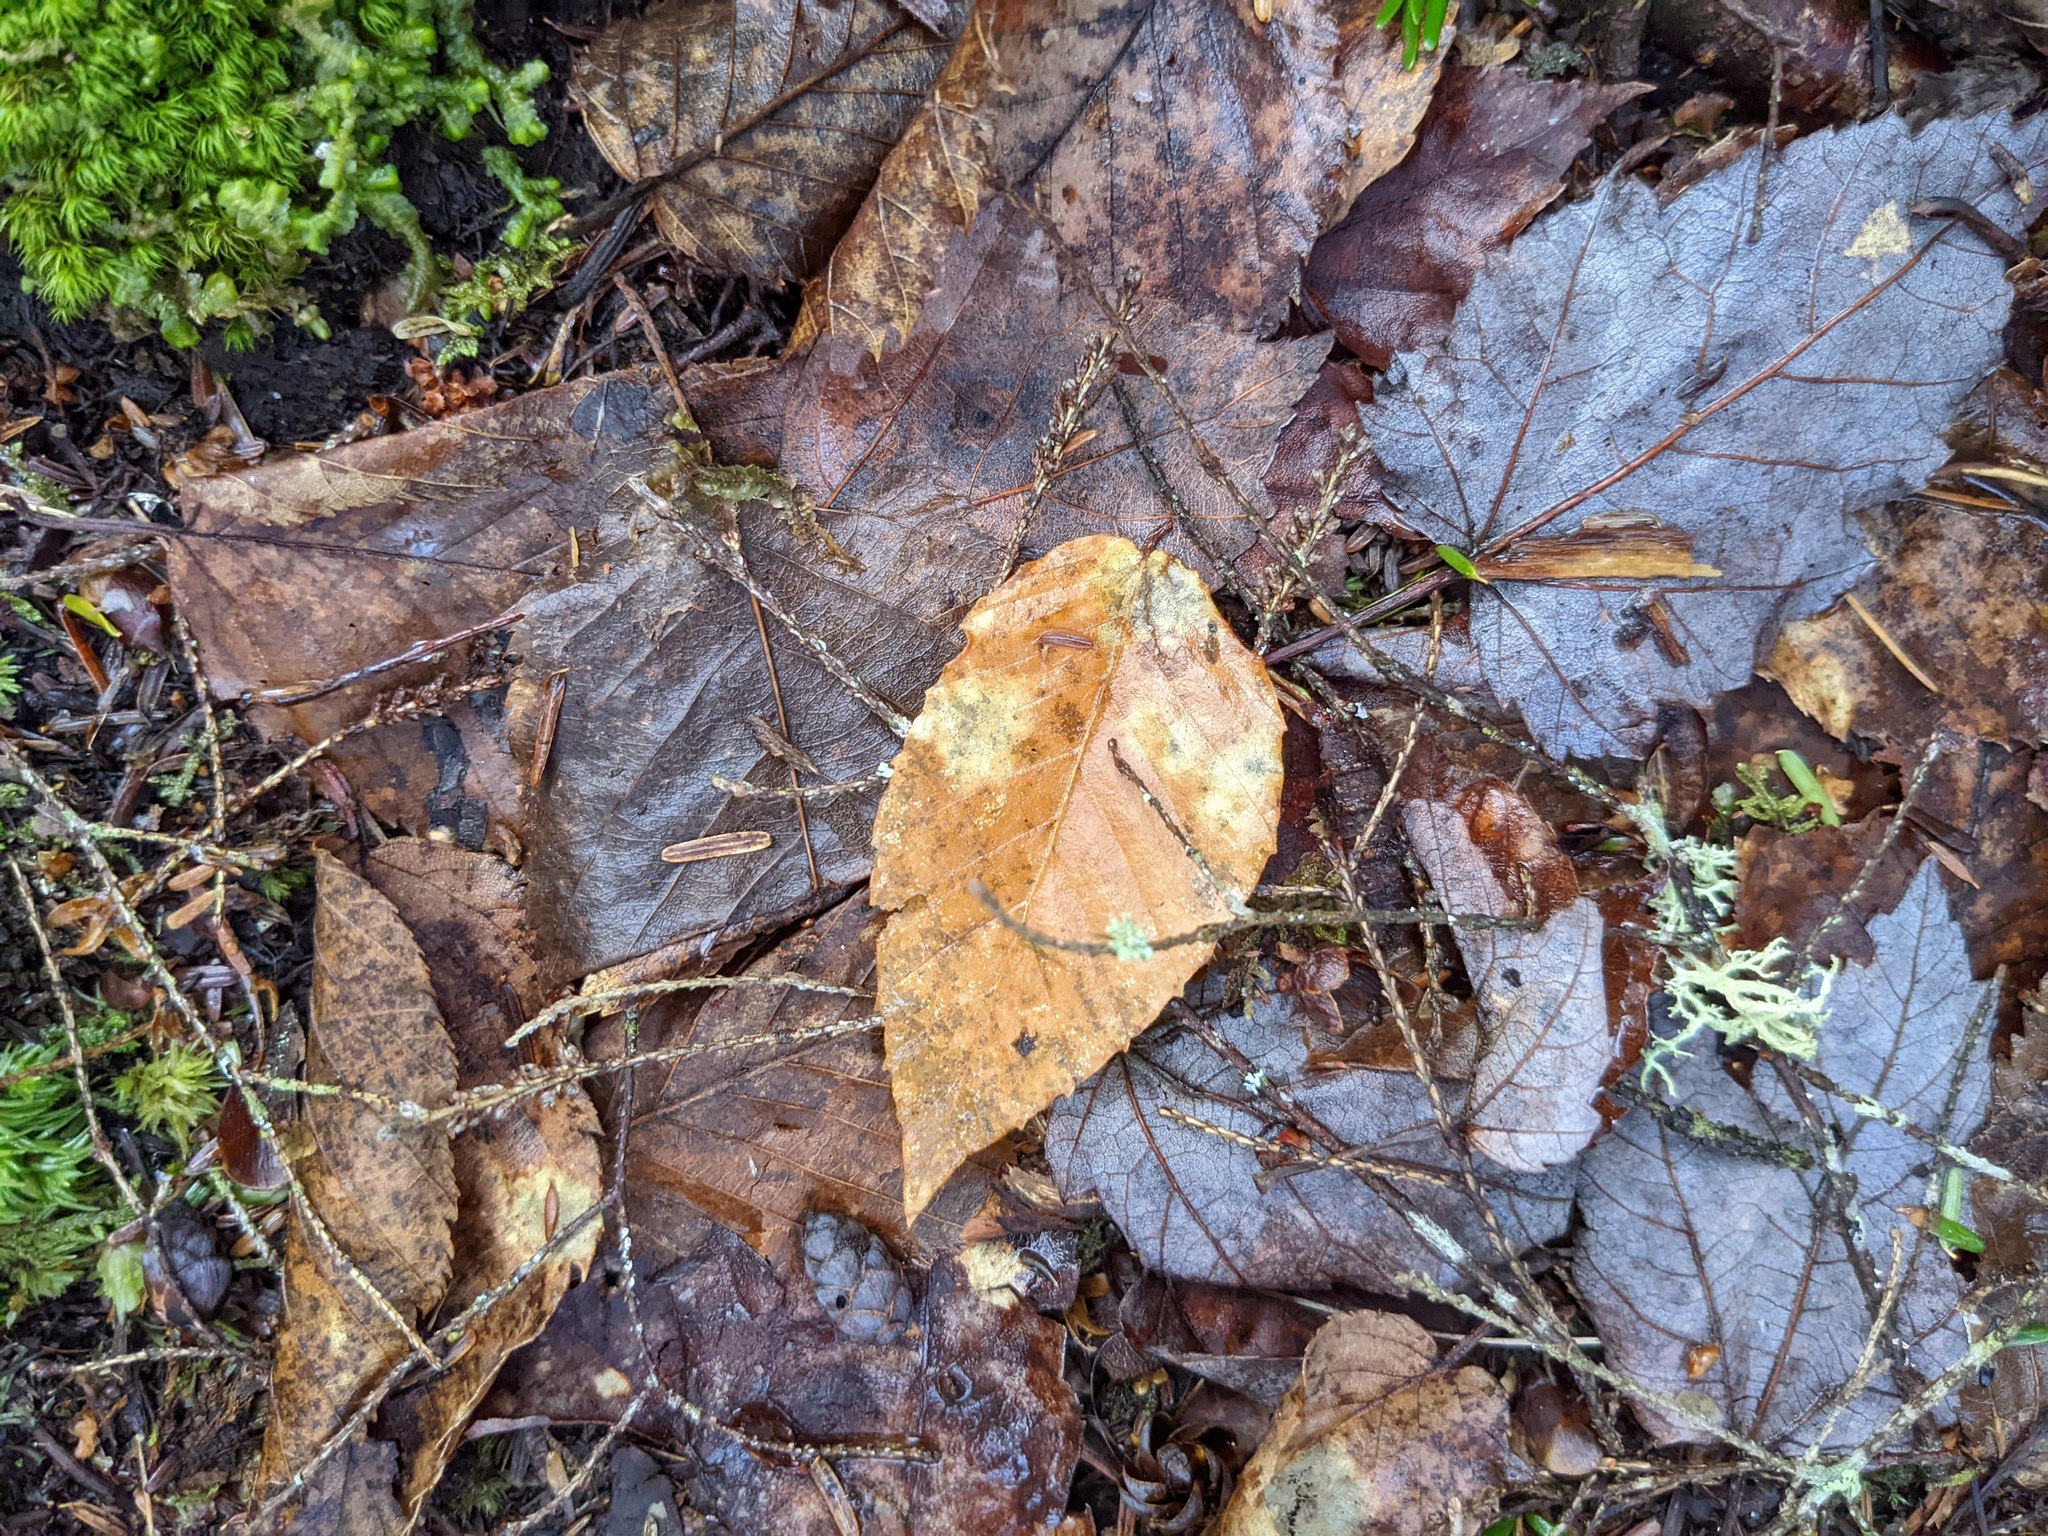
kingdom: Plantae
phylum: Tracheophyta
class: Magnoliopsida
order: Fagales
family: Fagaceae
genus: Fagus
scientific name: Fagus grandifolia
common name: American beech
